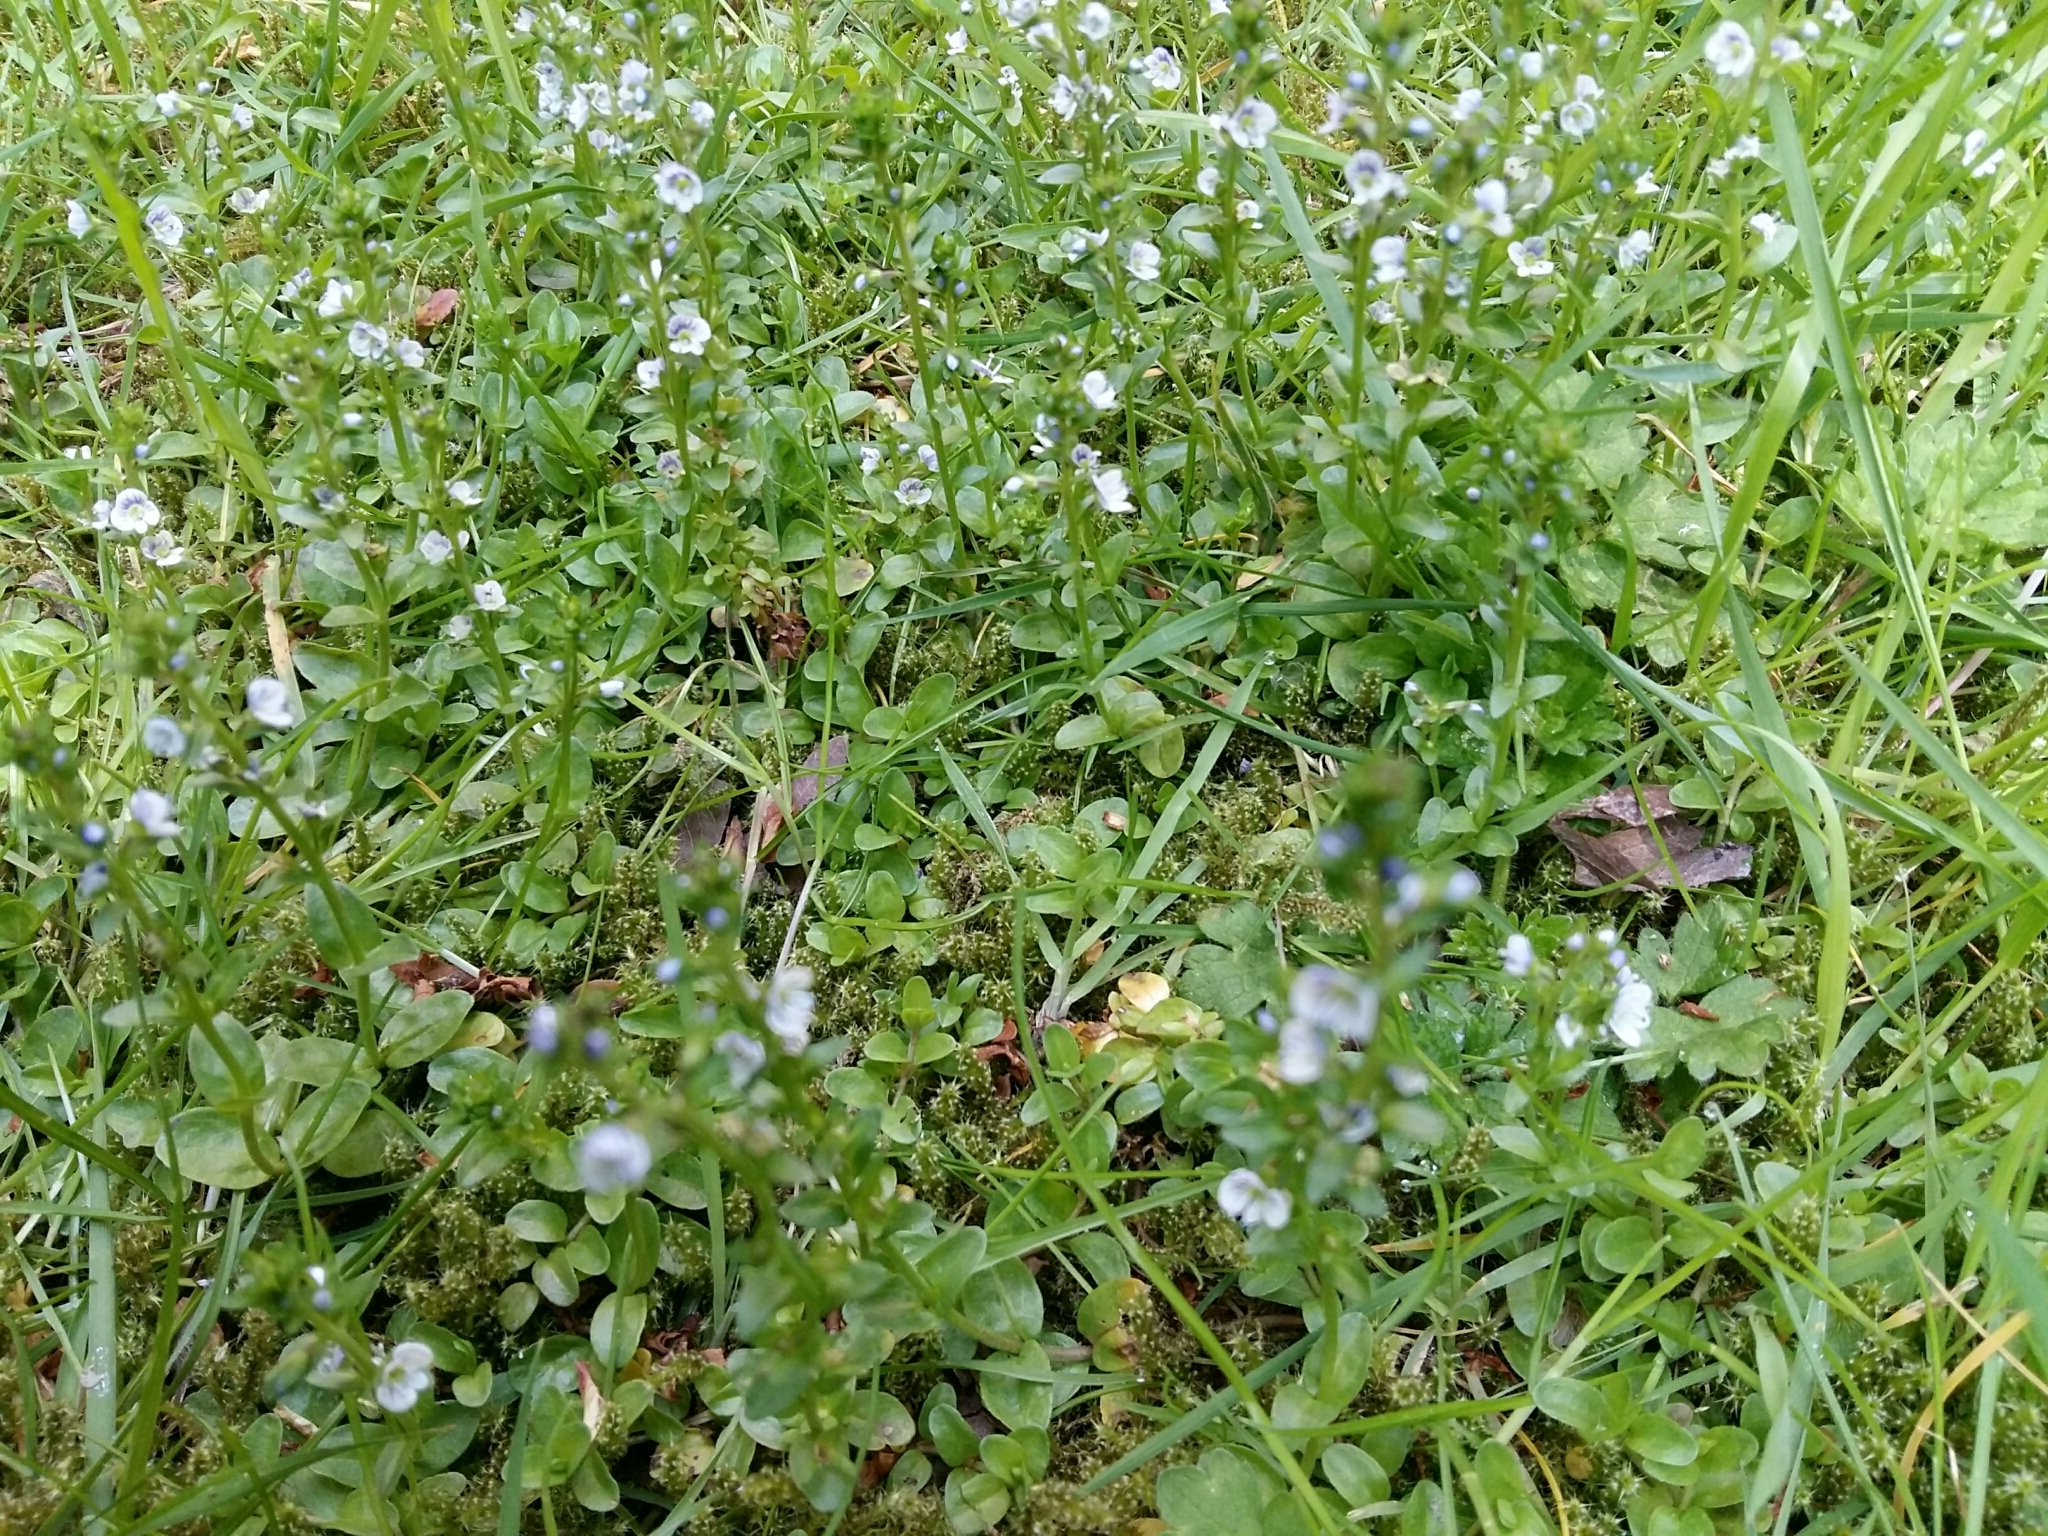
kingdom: Plantae
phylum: Tracheophyta
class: Magnoliopsida
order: Lamiales
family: Plantaginaceae
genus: Veronica
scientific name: Veronica serpyllifolia
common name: Thyme-leaved speedwell
